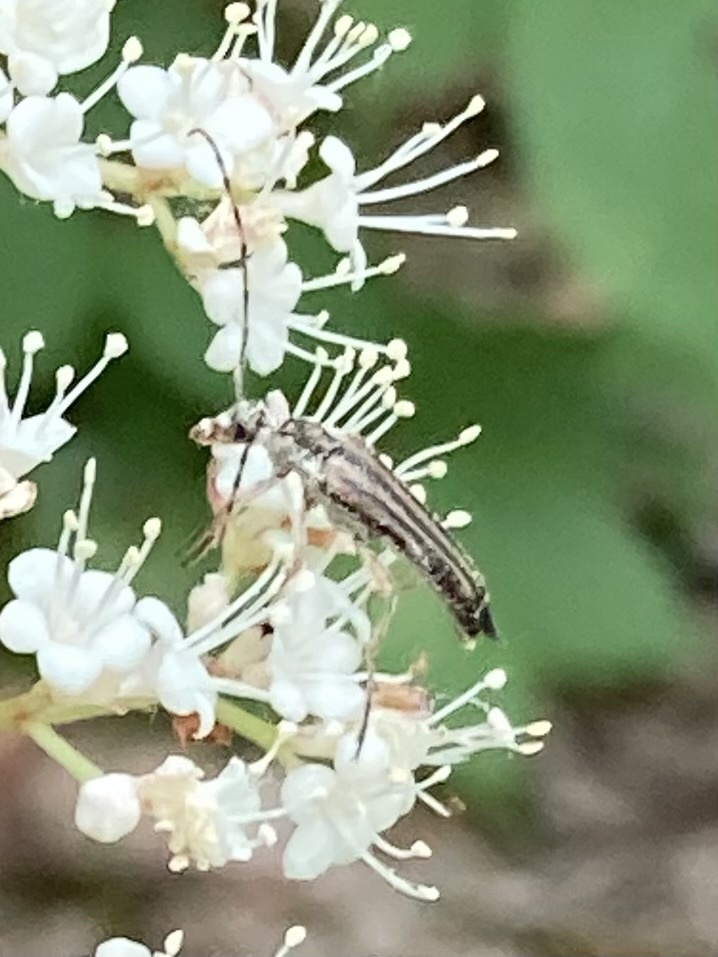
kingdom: Animalia
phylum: Arthropoda
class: Insecta
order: Coleoptera
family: Cerambycidae
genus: Analeptura
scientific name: Analeptura lineola
